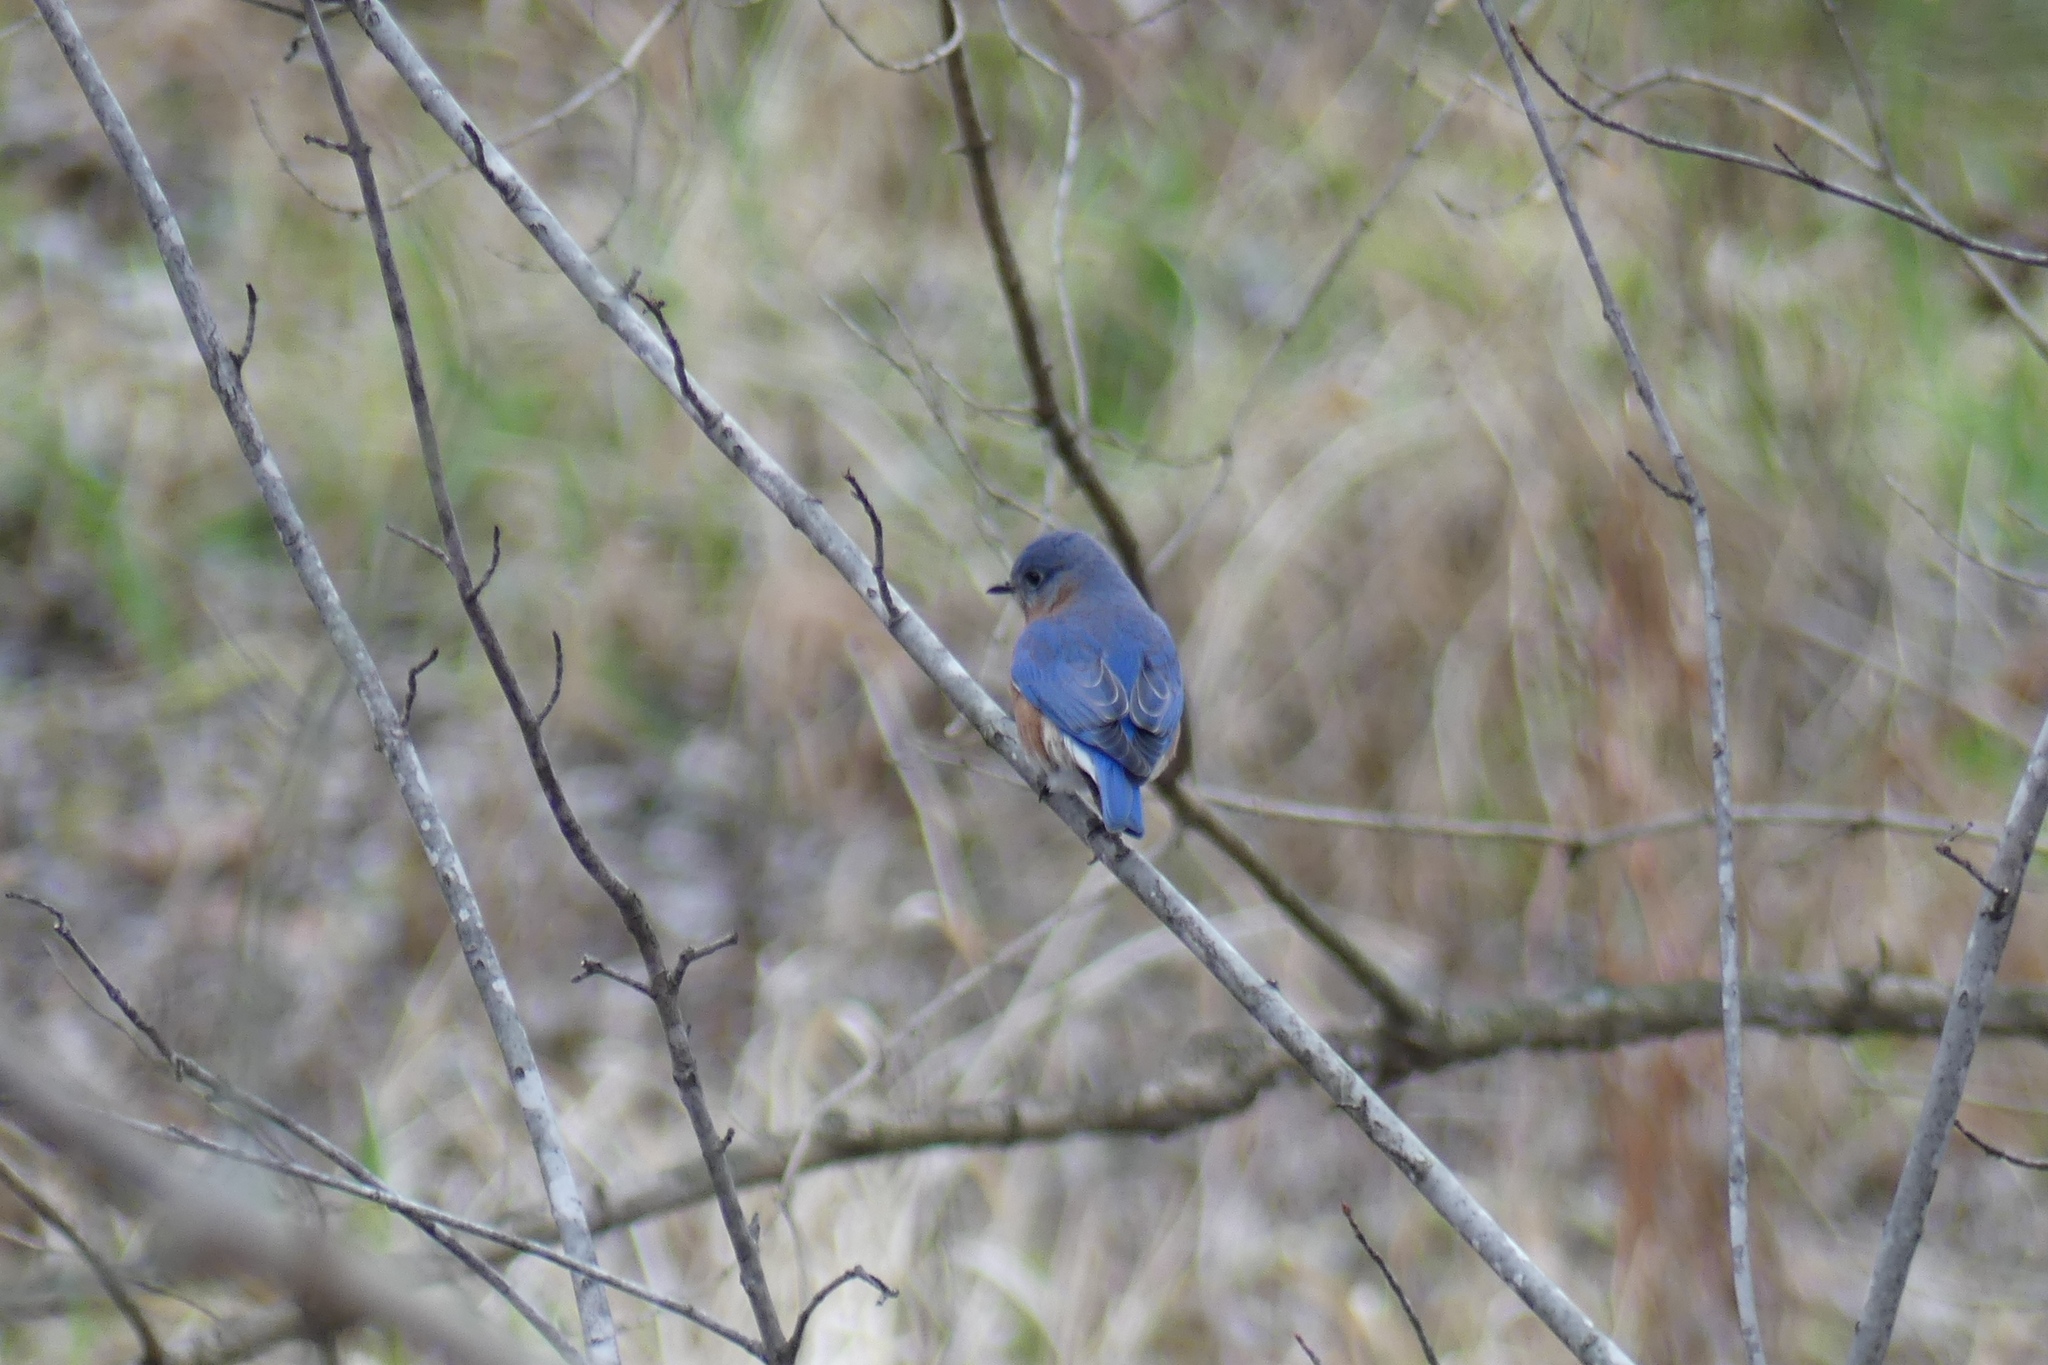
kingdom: Animalia
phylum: Chordata
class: Aves
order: Passeriformes
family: Turdidae
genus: Sialia
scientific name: Sialia sialis
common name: Eastern bluebird
